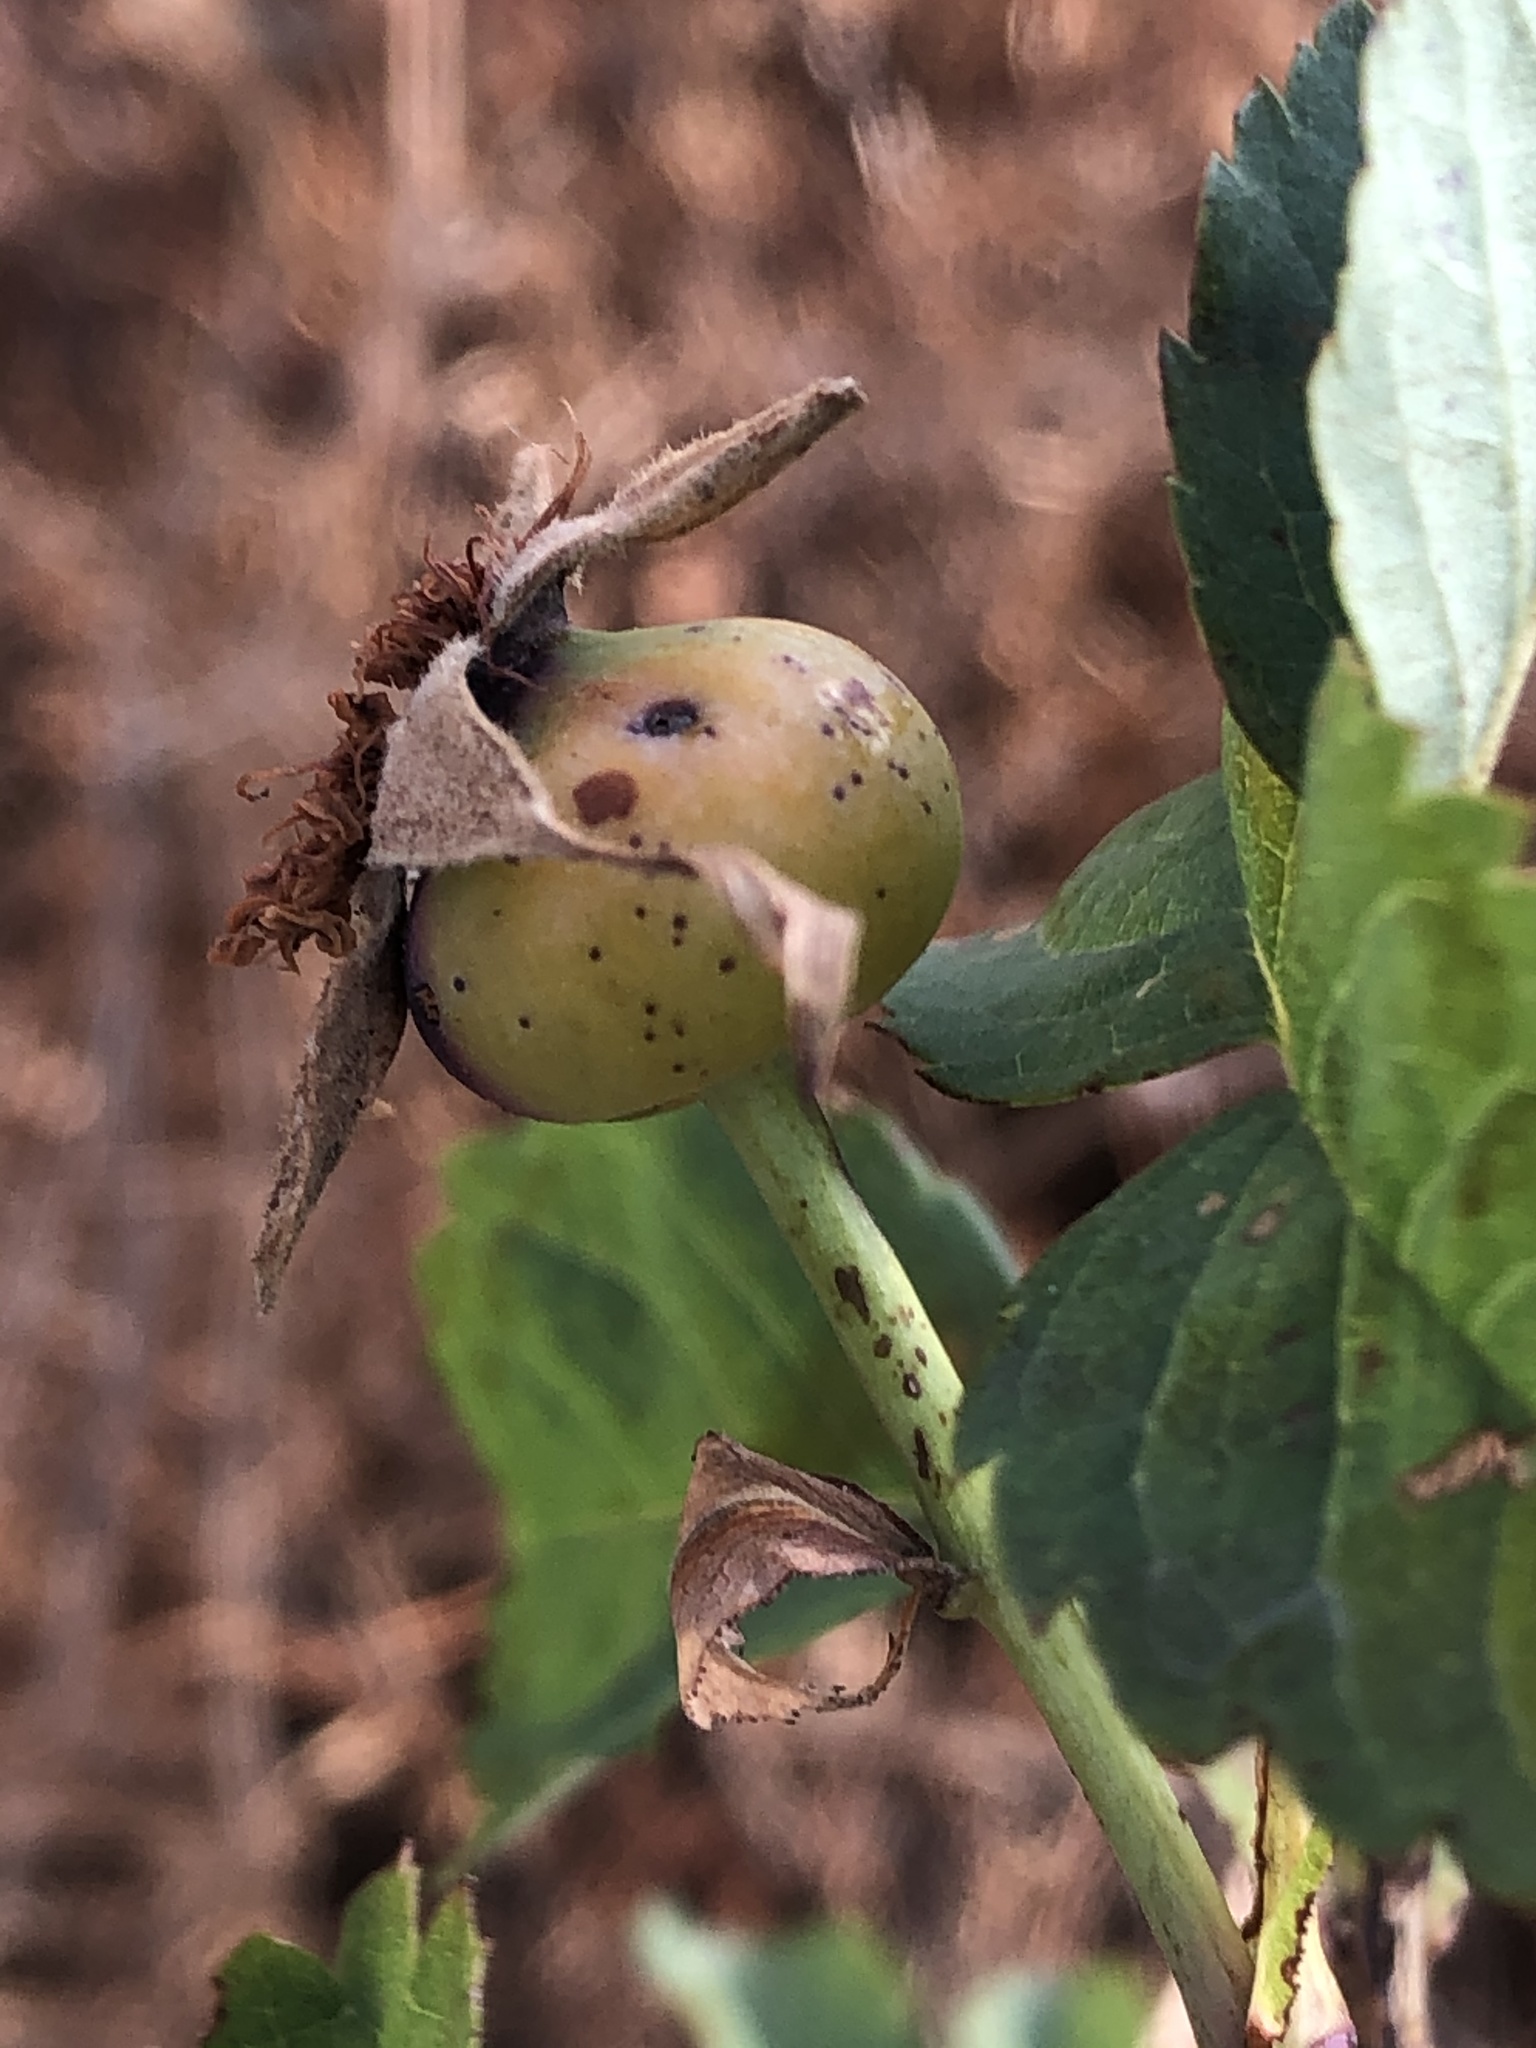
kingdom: Plantae
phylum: Tracheophyta
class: Magnoliopsida
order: Rosales
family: Rosaceae
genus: Rosa
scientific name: Rosa nutkana
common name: Nootka rose
